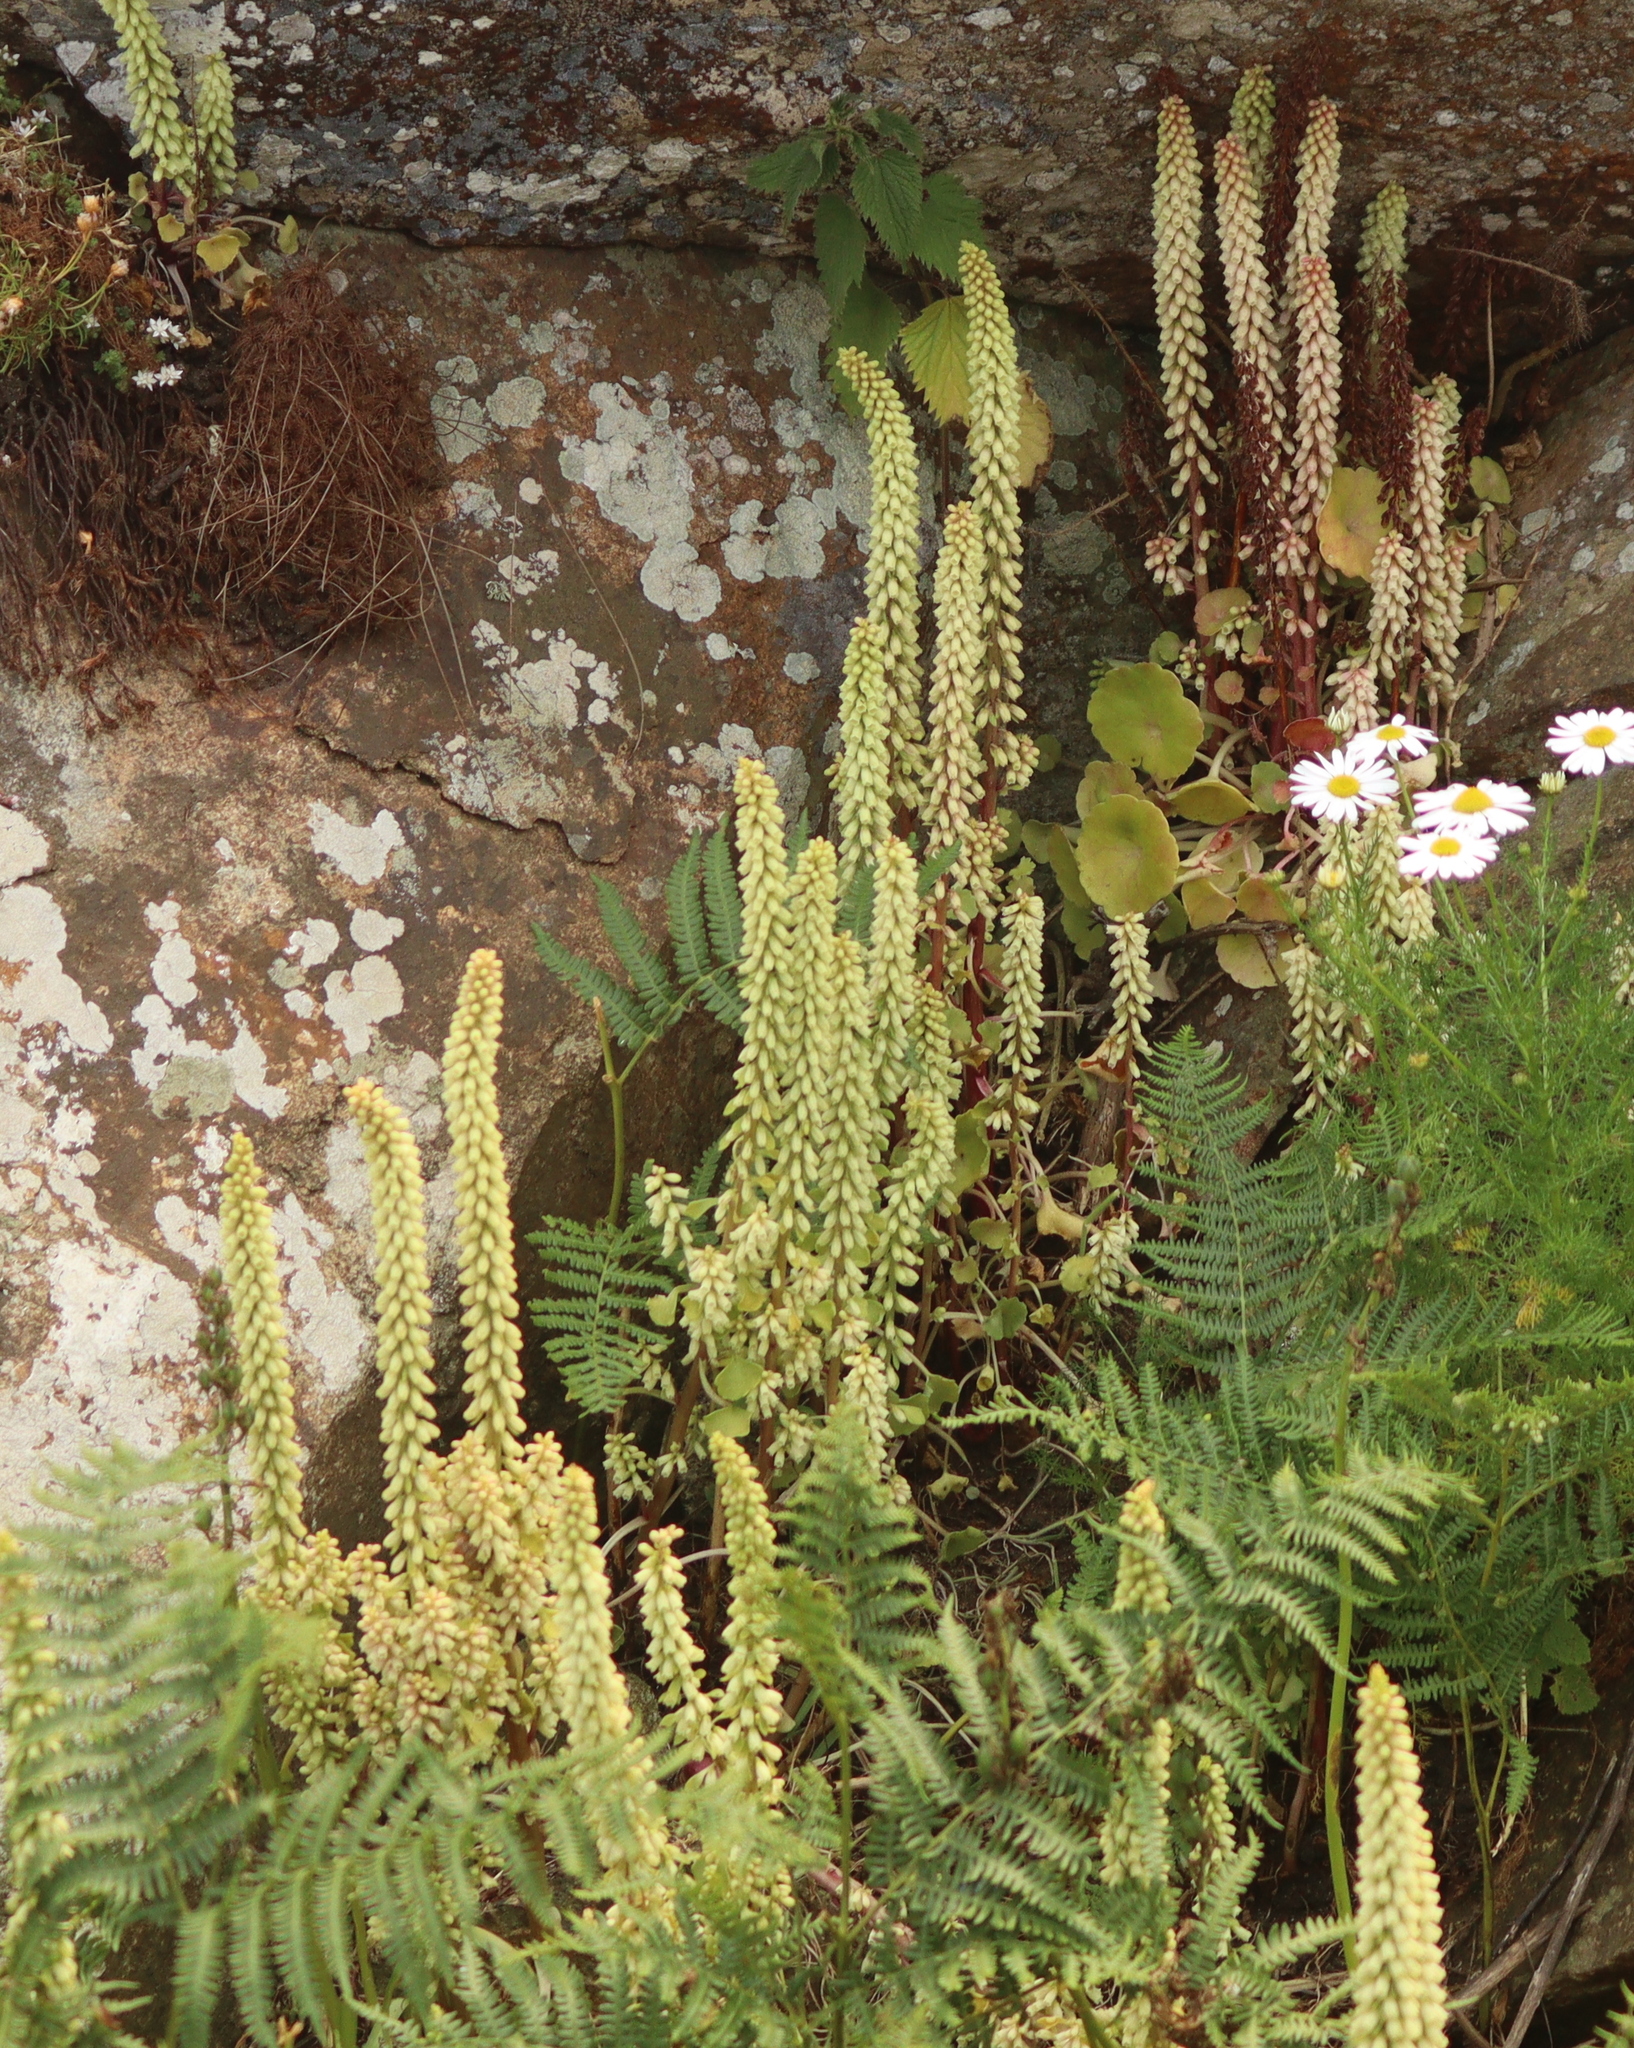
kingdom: Plantae
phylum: Tracheophyta
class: Magnoliopsida
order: Saxifragales
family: Crassulaceae
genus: Umbilicus
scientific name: Umbilicus rupestris
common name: Navelwort
